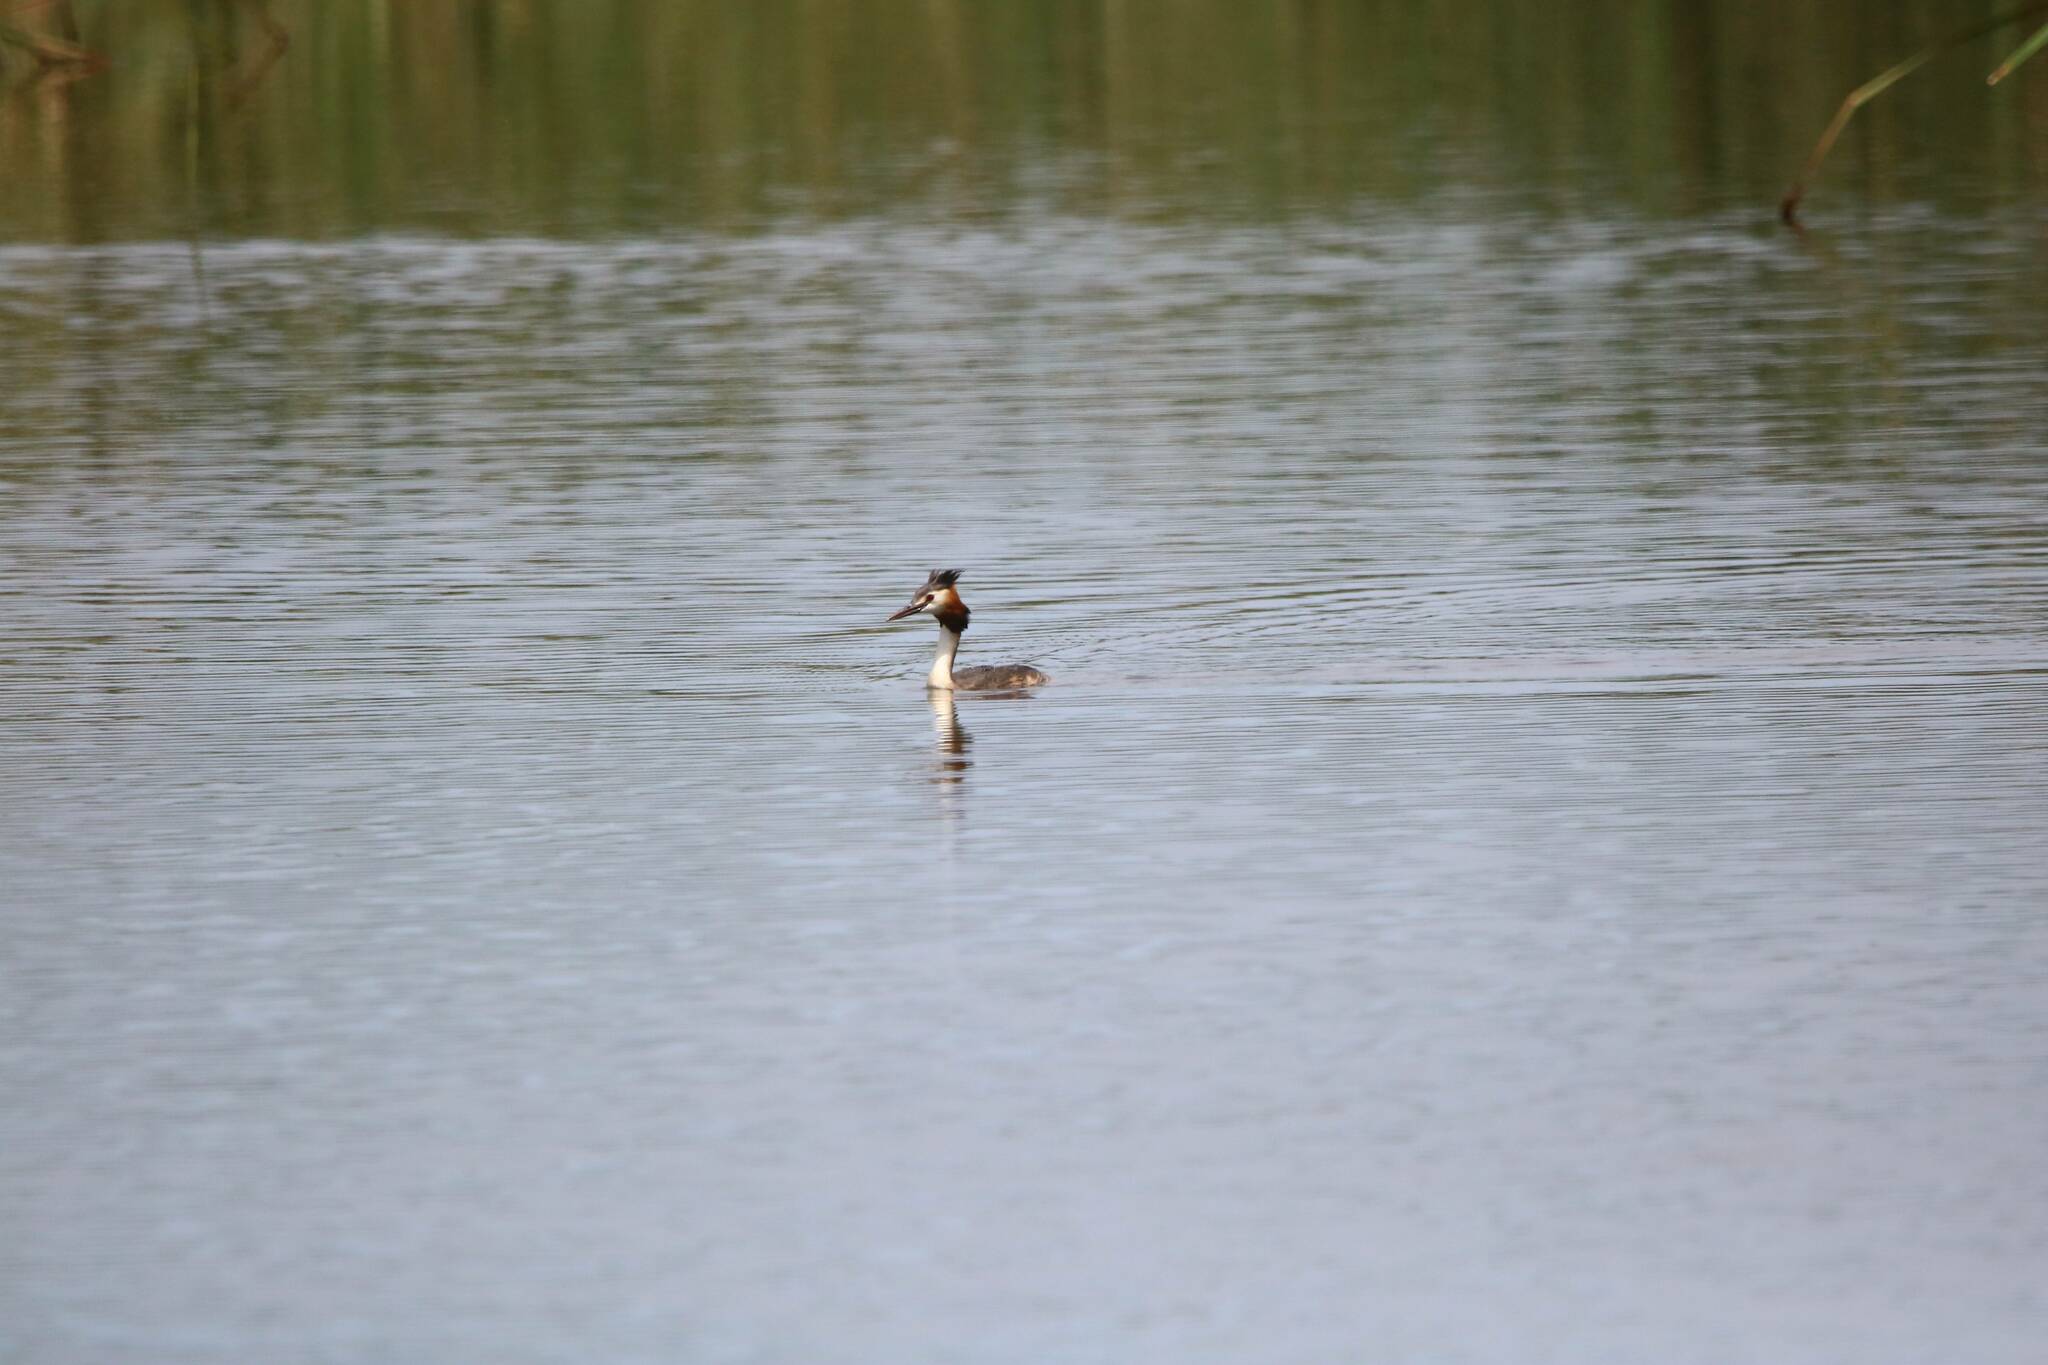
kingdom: Animalia
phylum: Chordata
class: Aves
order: Podicipediformes
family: Podicipedidae
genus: Podiceps
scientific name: Podiceps cristatus
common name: Great crested grebe
